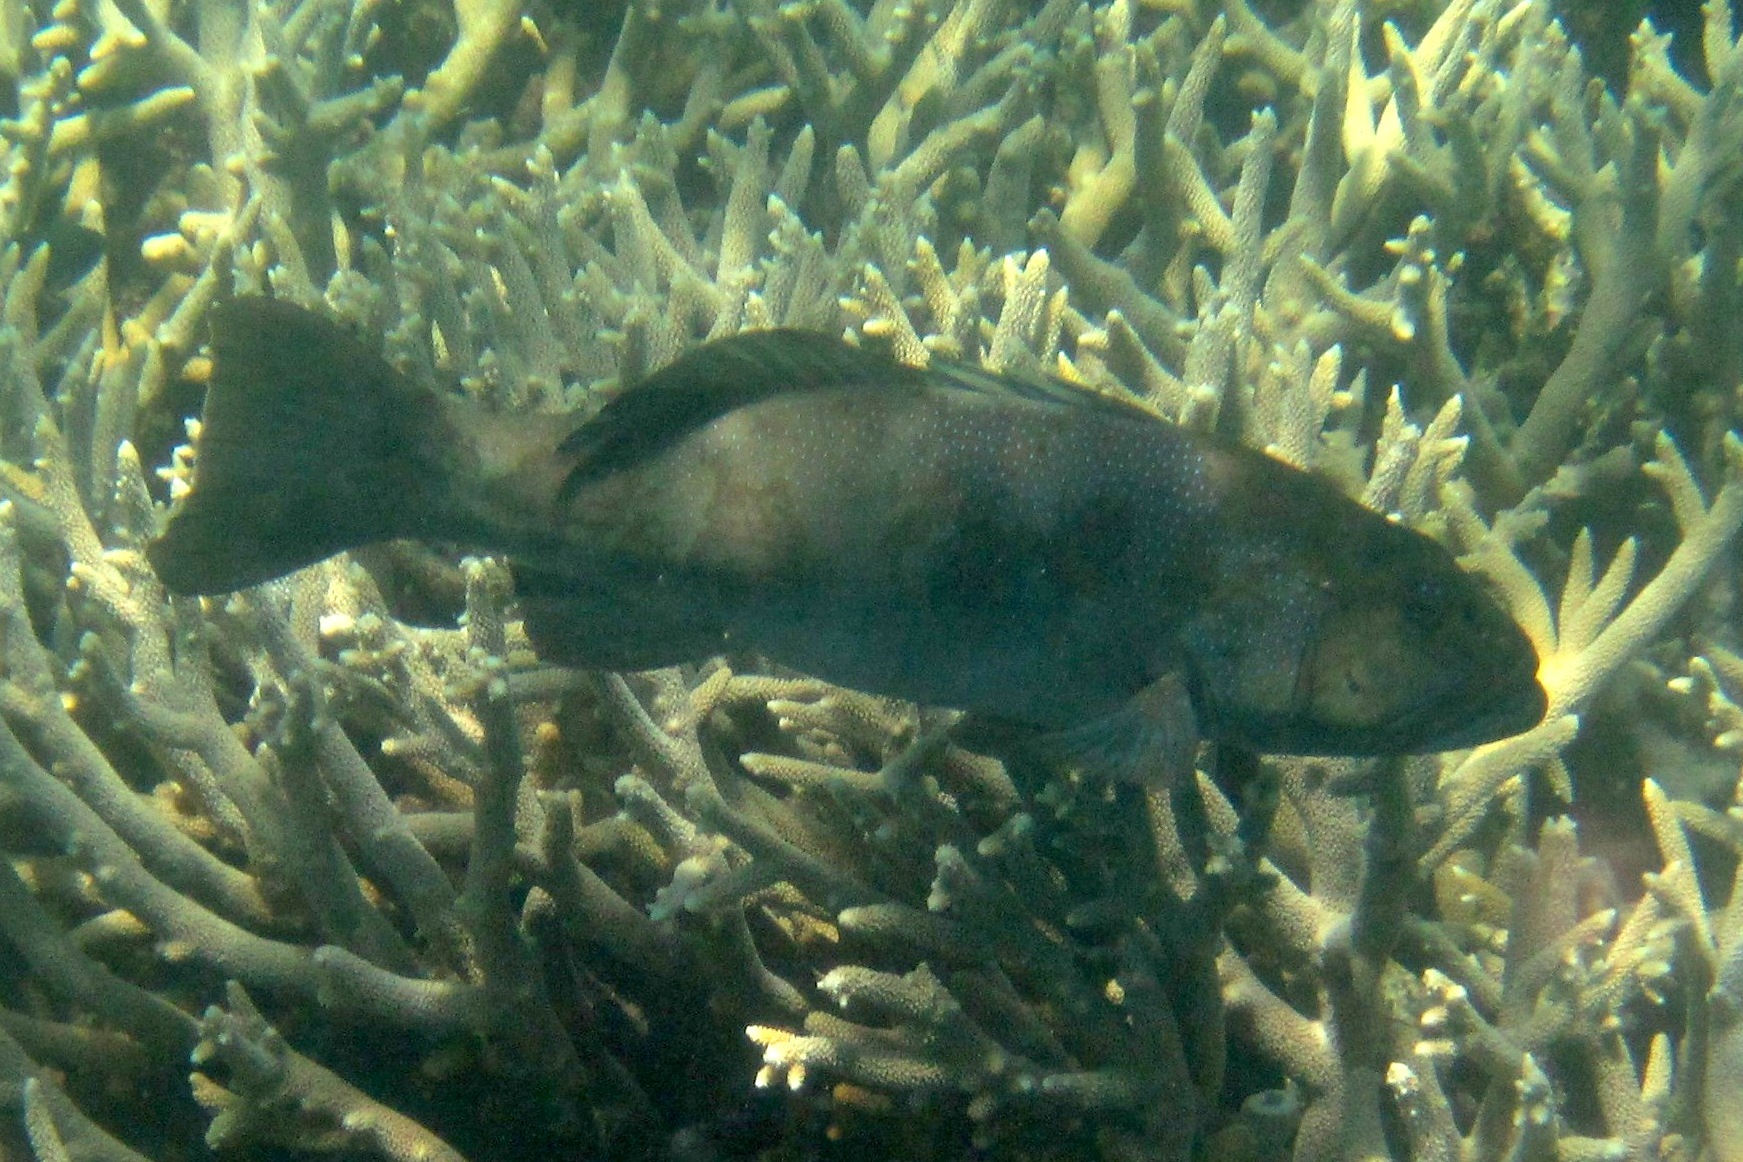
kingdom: Animalia
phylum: Chordata
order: Perciformes
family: Serranidae
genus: Plectropomus
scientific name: Plectropomus leopardus
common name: Coral trout
